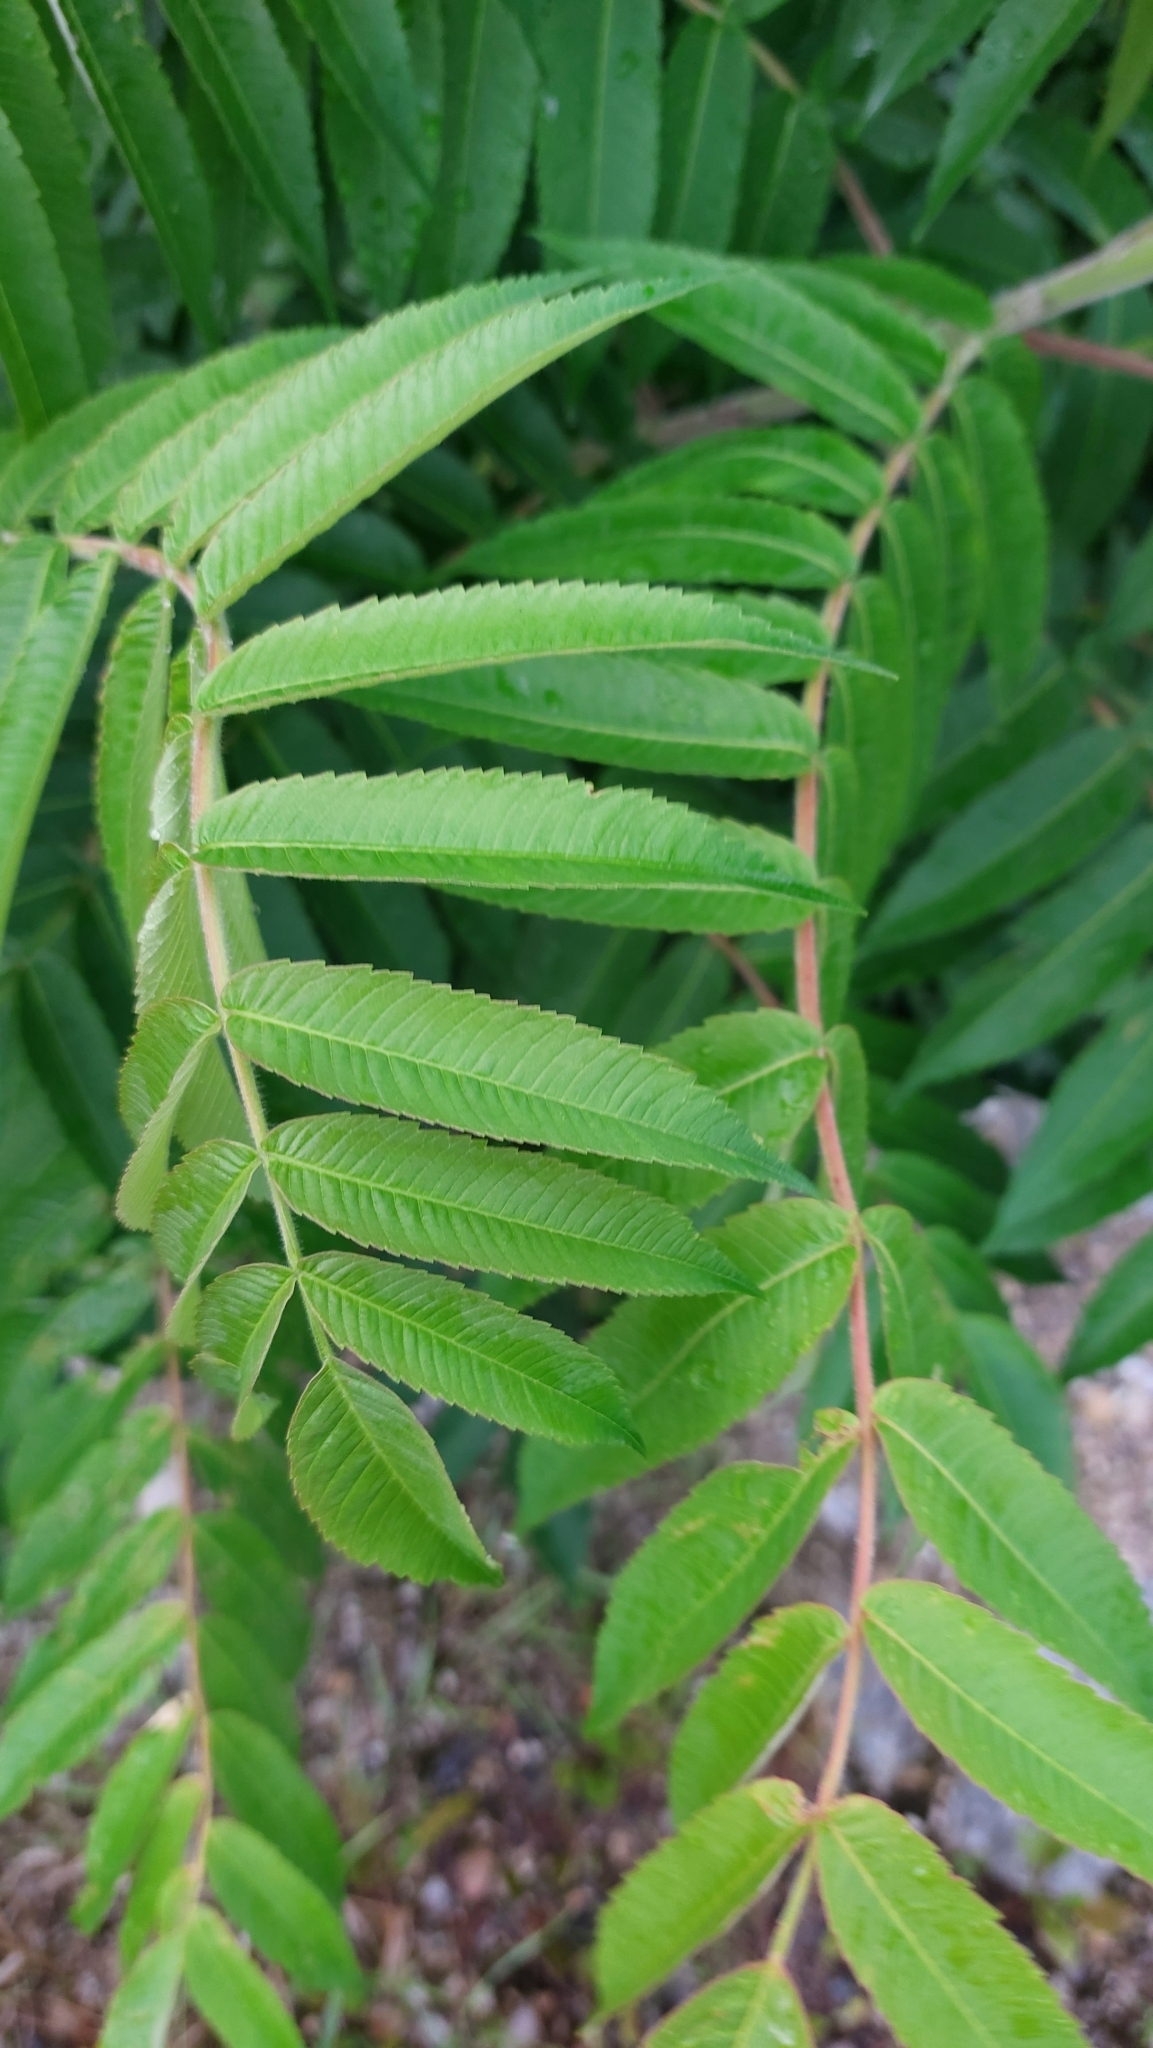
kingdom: Plantae
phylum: Tracheophyta
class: Magnoliopsida
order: Sapindales
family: Anacardiaceae
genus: Rhus
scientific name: Rhus typhina
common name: Staghorn sumac
